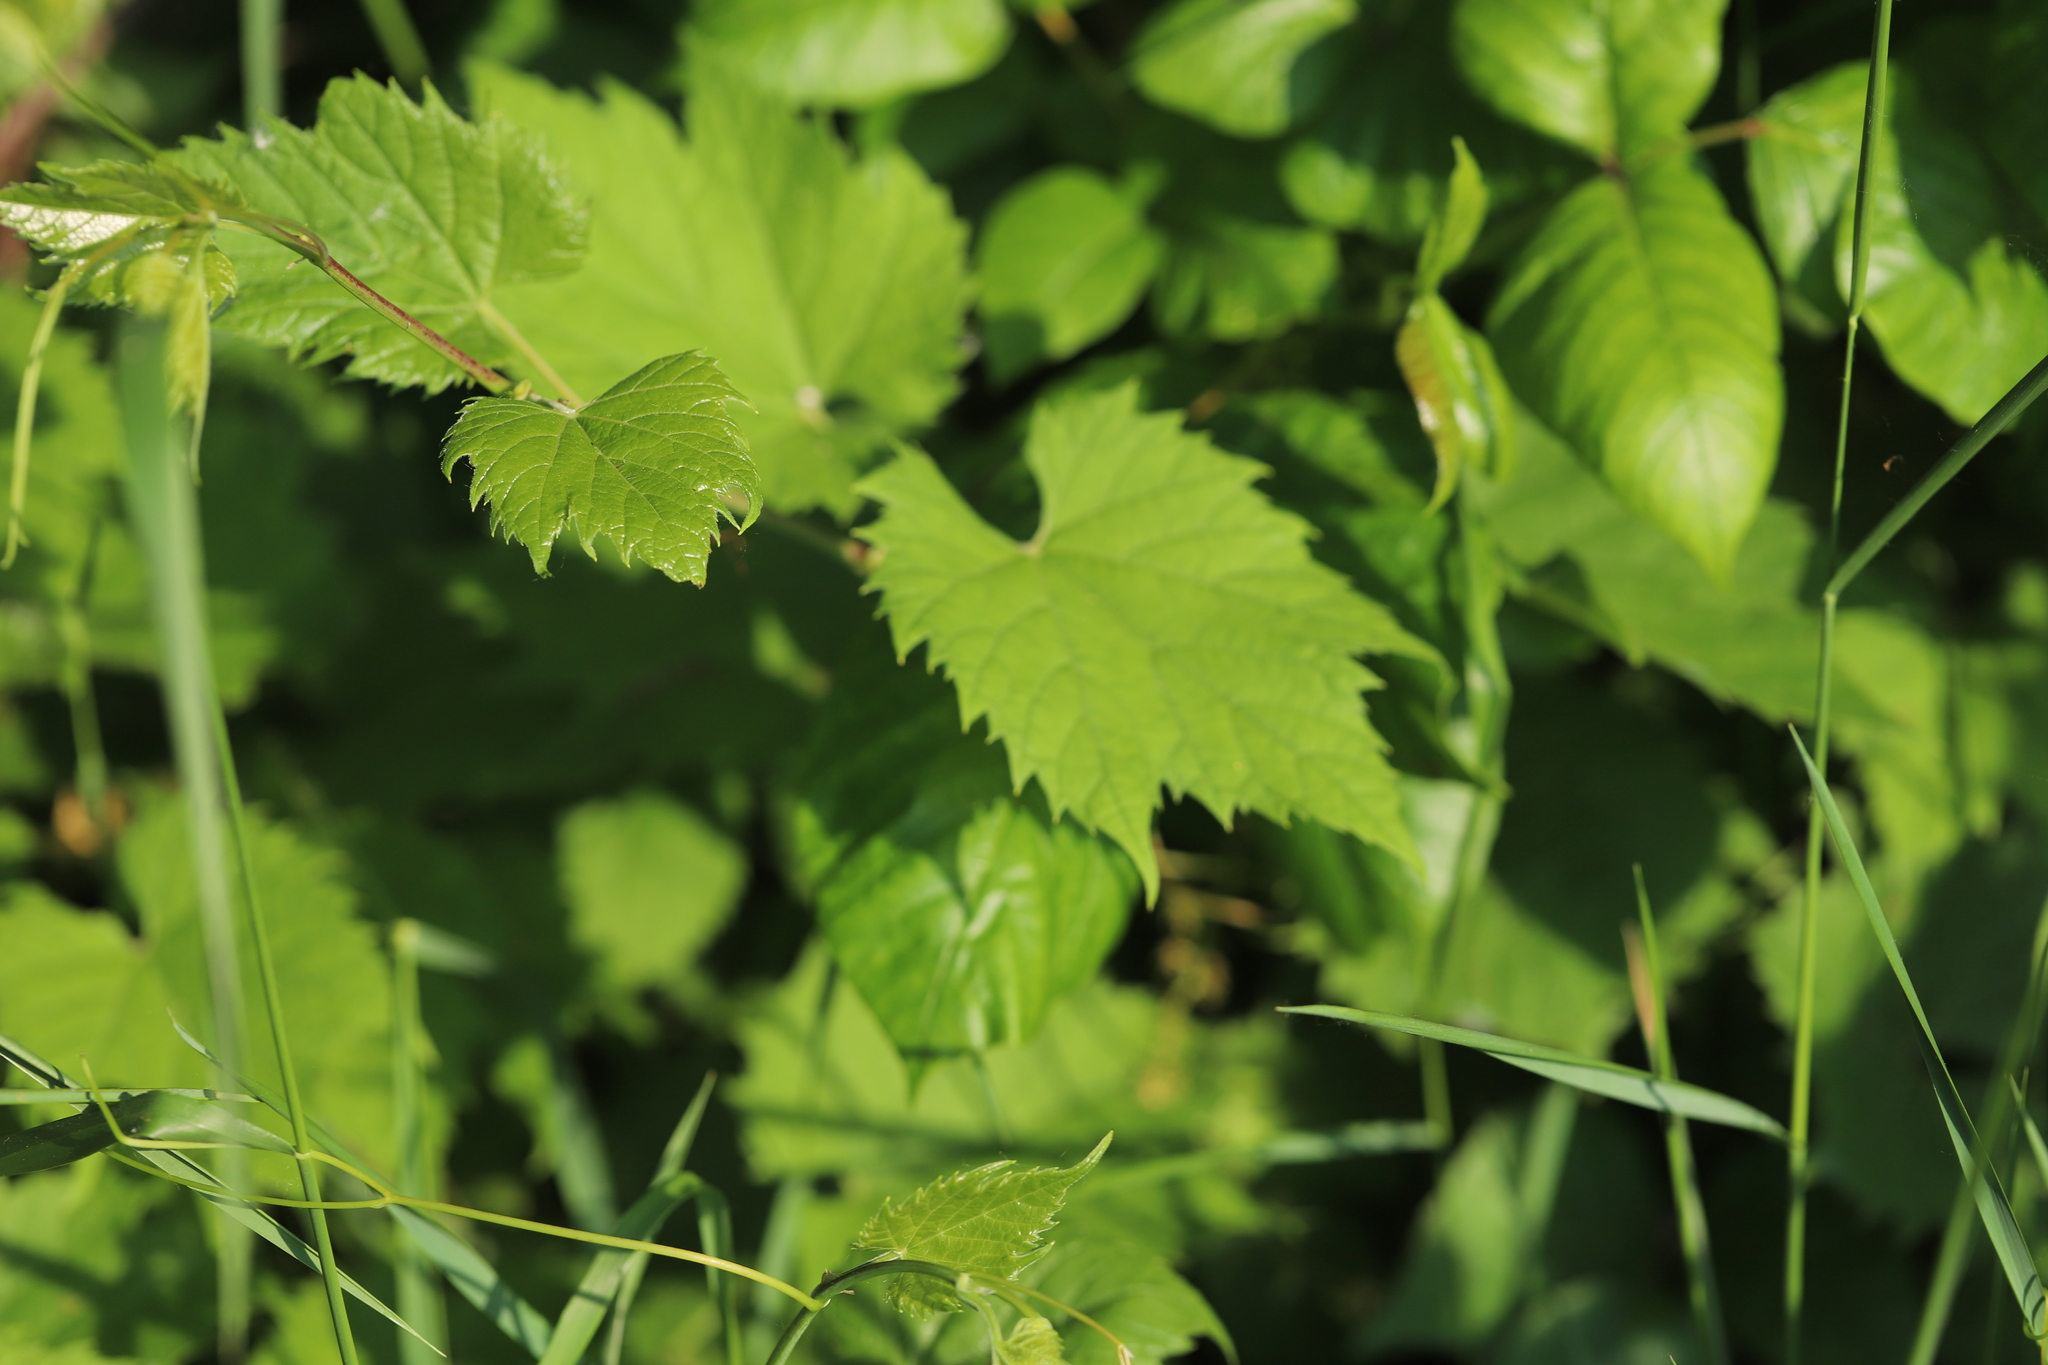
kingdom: Plantae
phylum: Tracheophyta
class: Magnoliopsida
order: Vitales
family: Vitaceae
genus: Vitis
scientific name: Vitis riparia
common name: Frost grape
